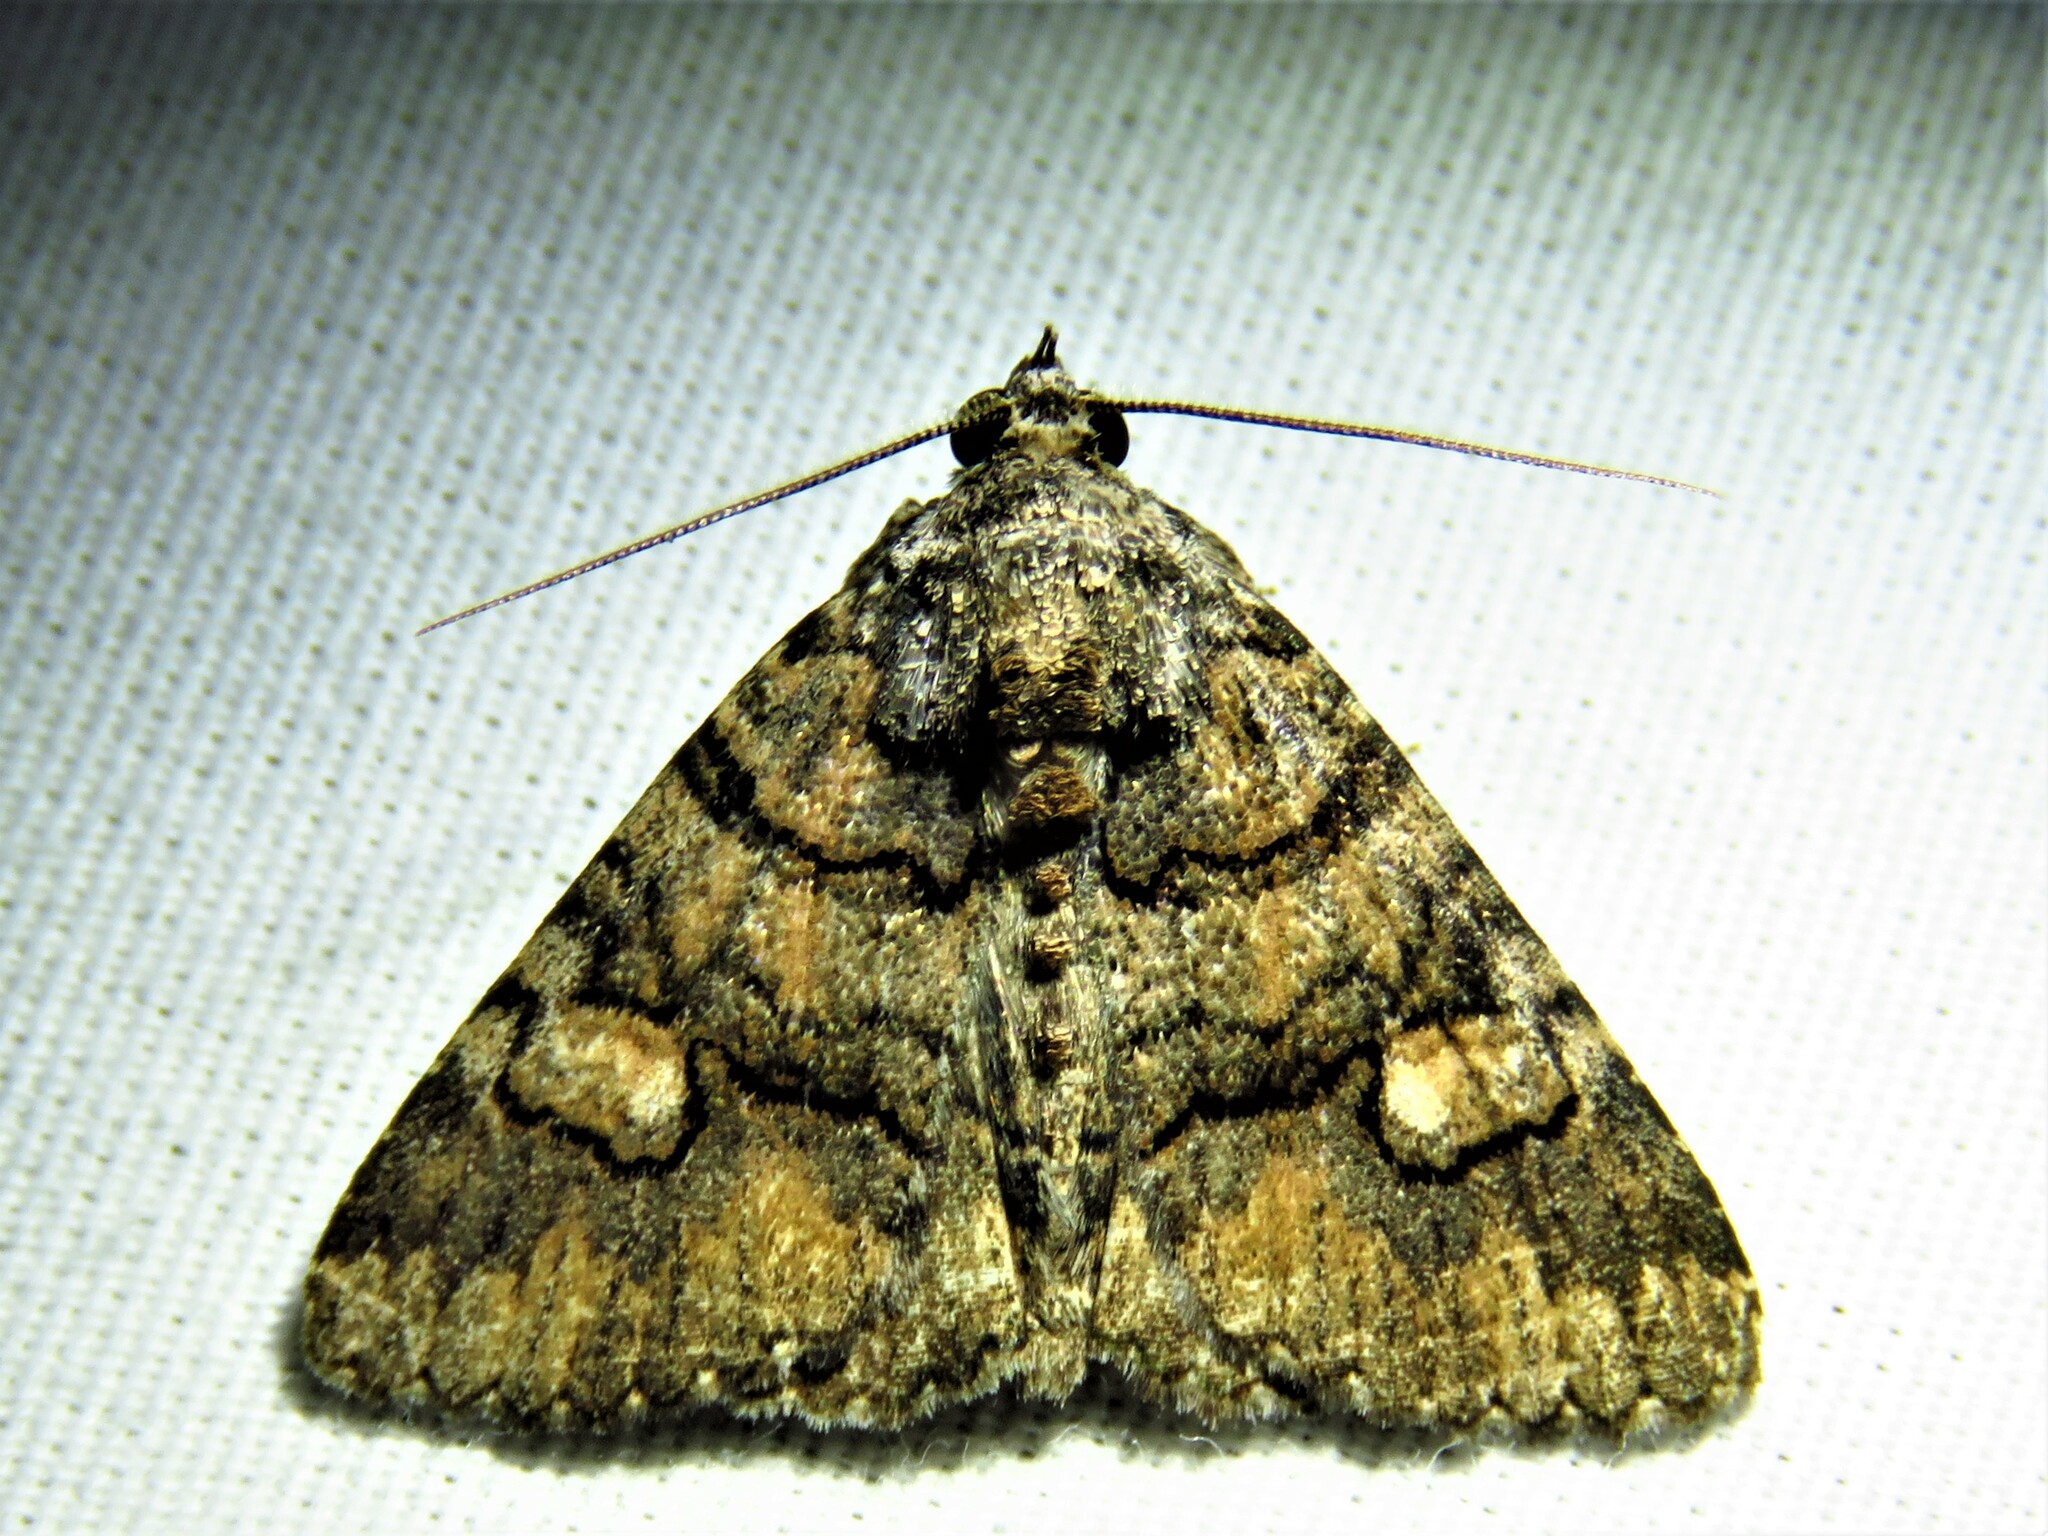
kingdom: Animalia
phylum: Arthropoda
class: Insecta
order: Lepidoptera
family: Erebidae
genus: Elousa
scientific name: Elousa mima
